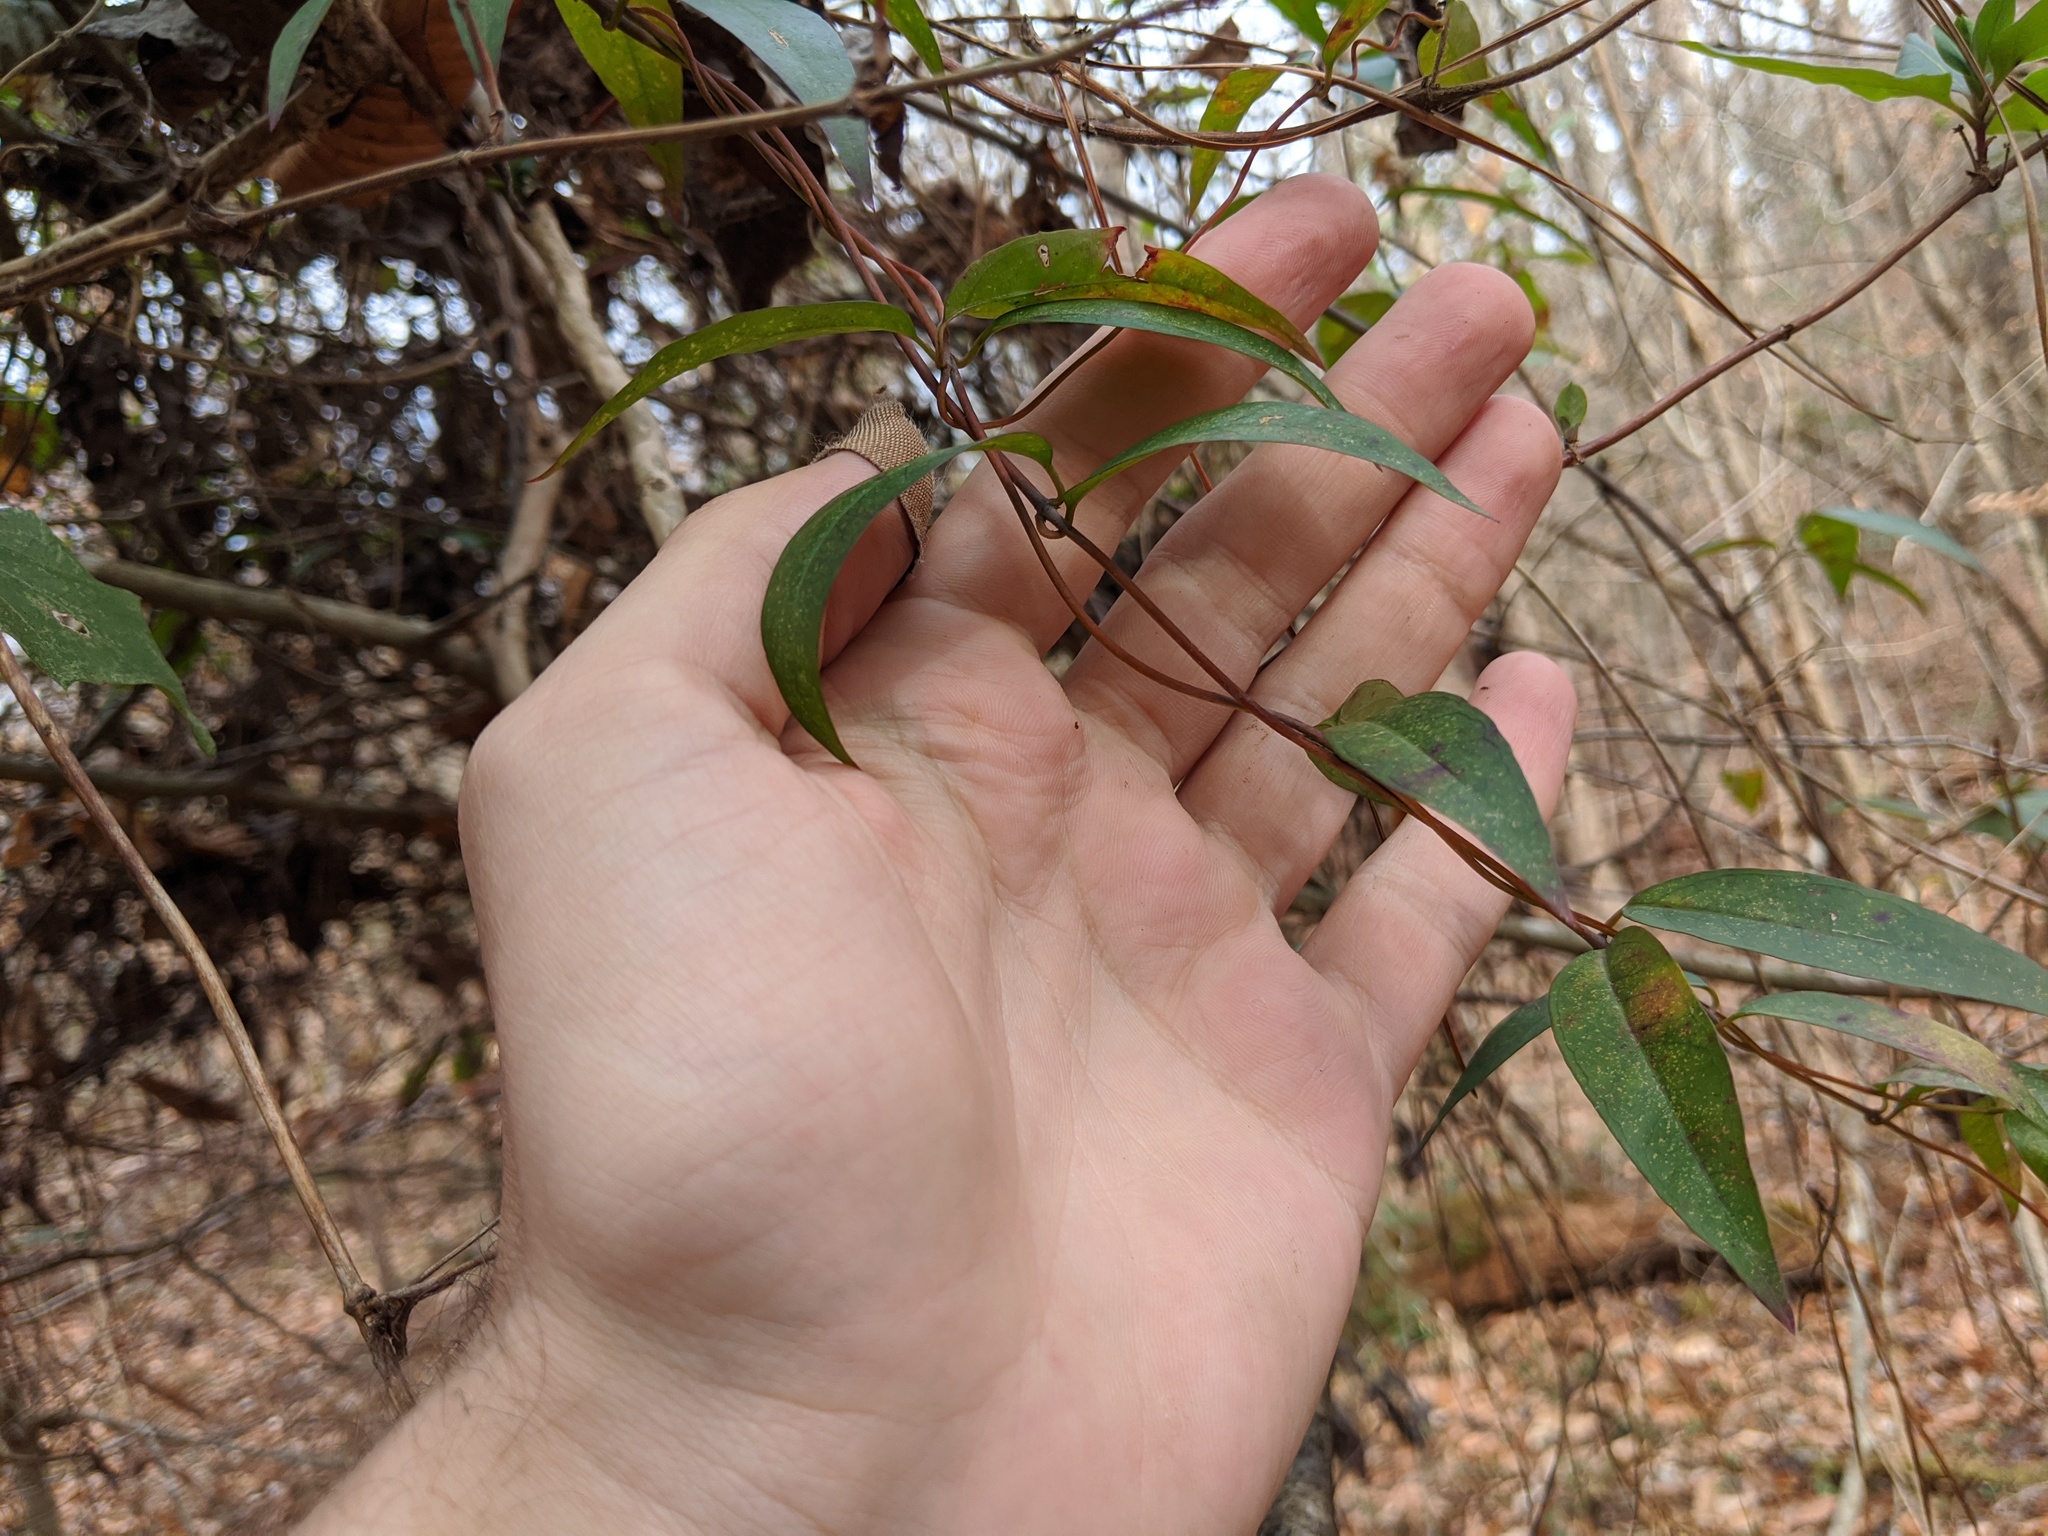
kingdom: Plantae
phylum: Tracheophyta
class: Magnoliopsida
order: Gentianales
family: Gelsemiaceae
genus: Gelsemium
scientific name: Gelsemium sempervirens
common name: Carolina-jasmine
